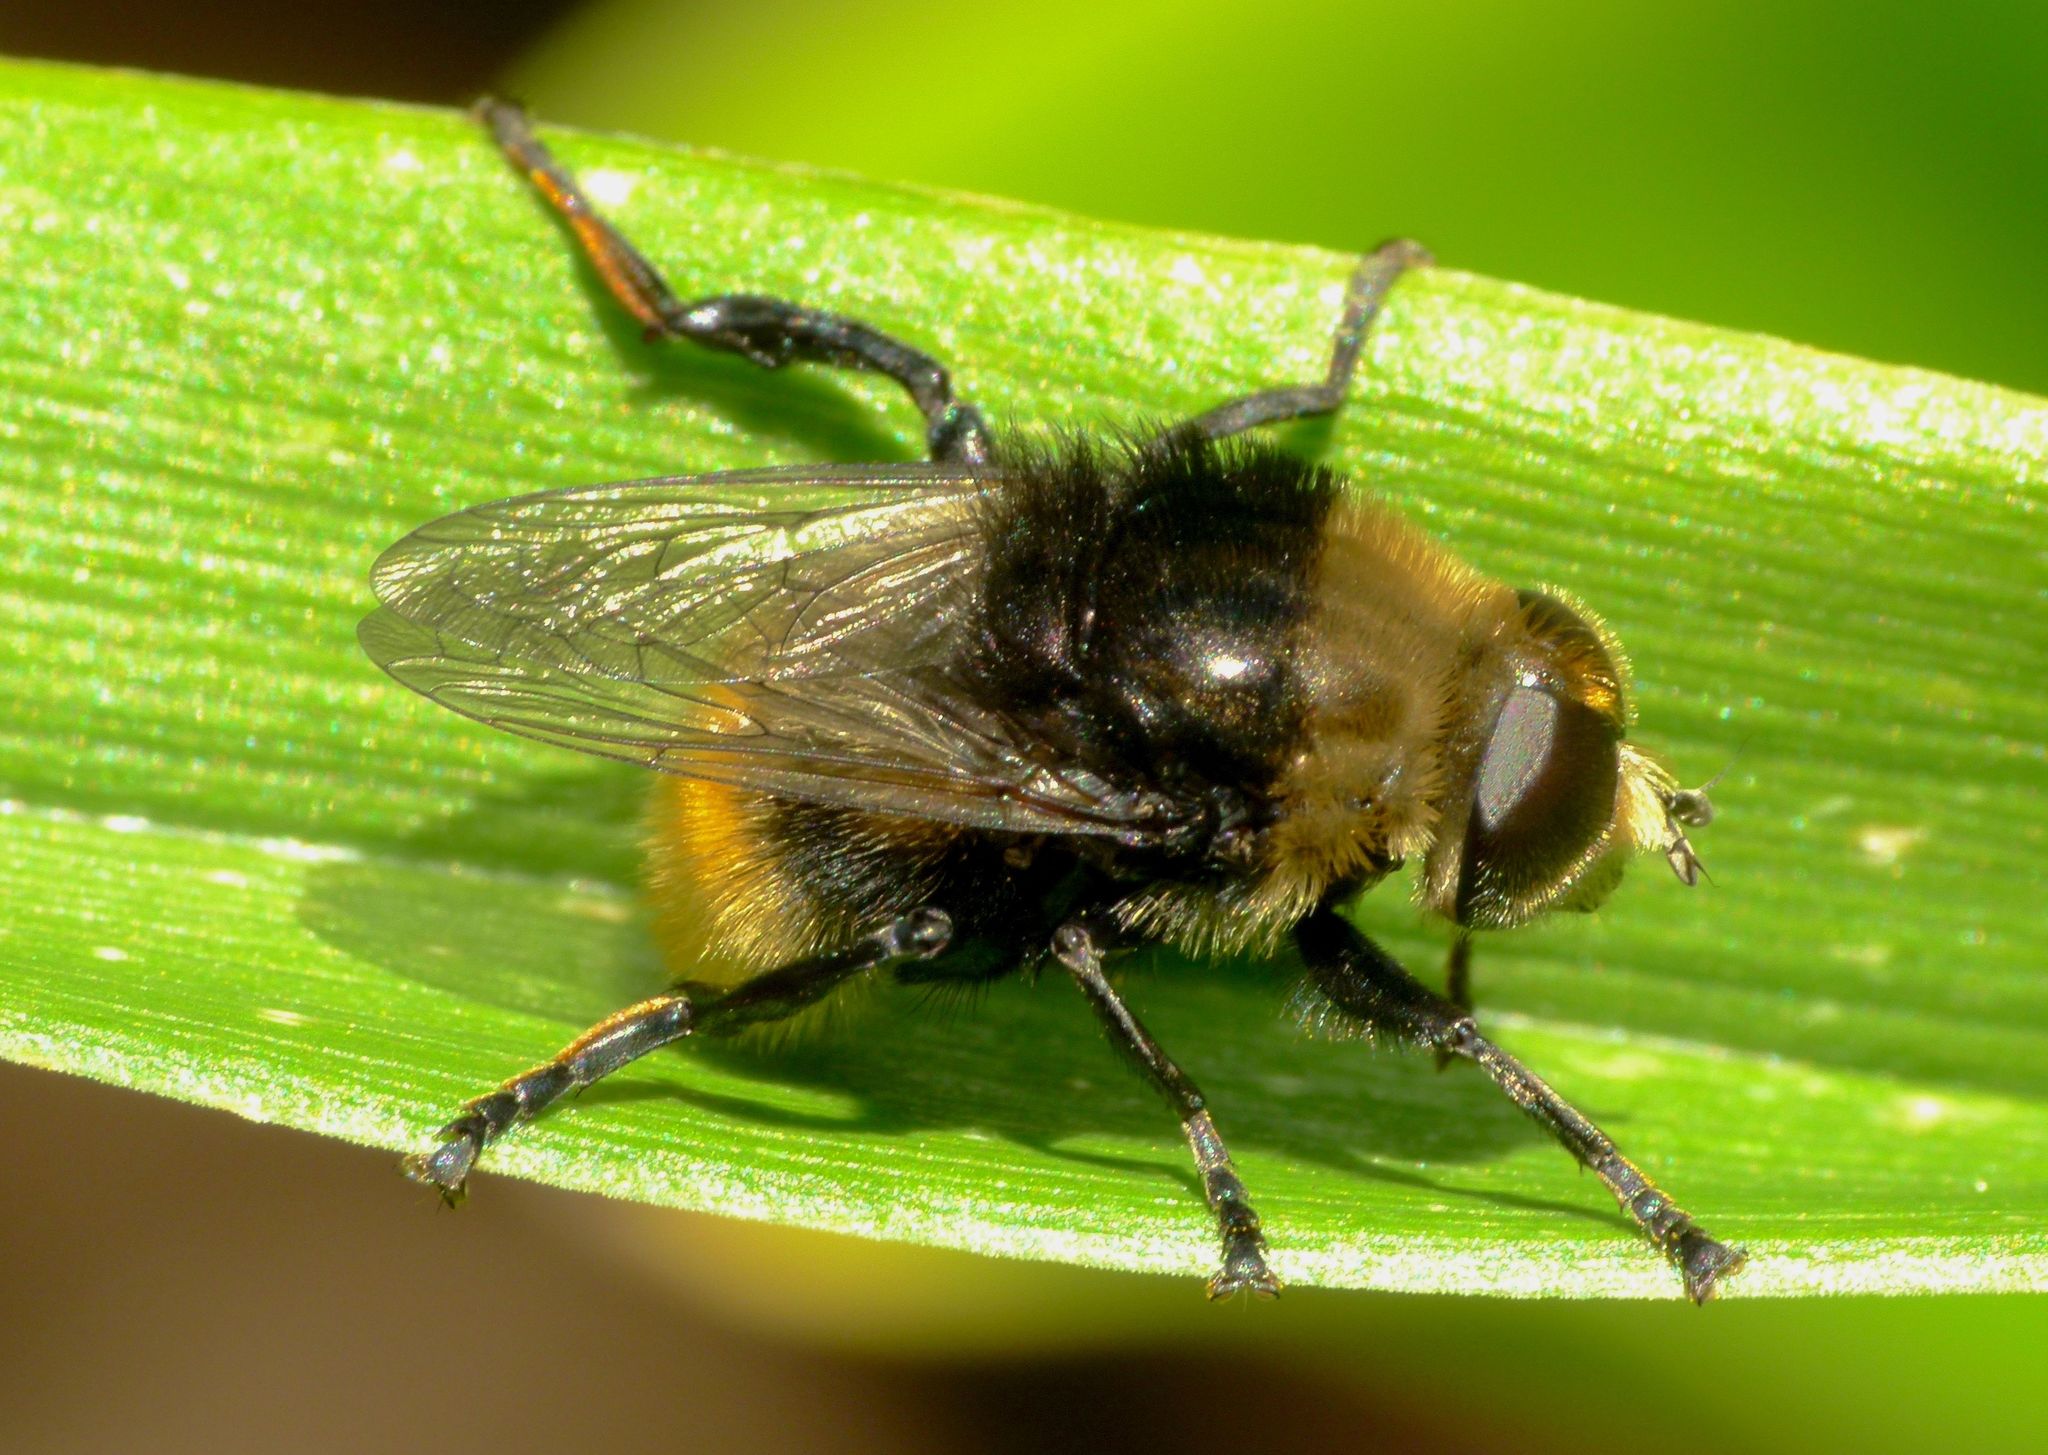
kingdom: Animalia
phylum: Arthropoda
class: Insecta
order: Diptera
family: Syrphidae
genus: Merodon
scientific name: Merodon equestris
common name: Greater bulb-fly
